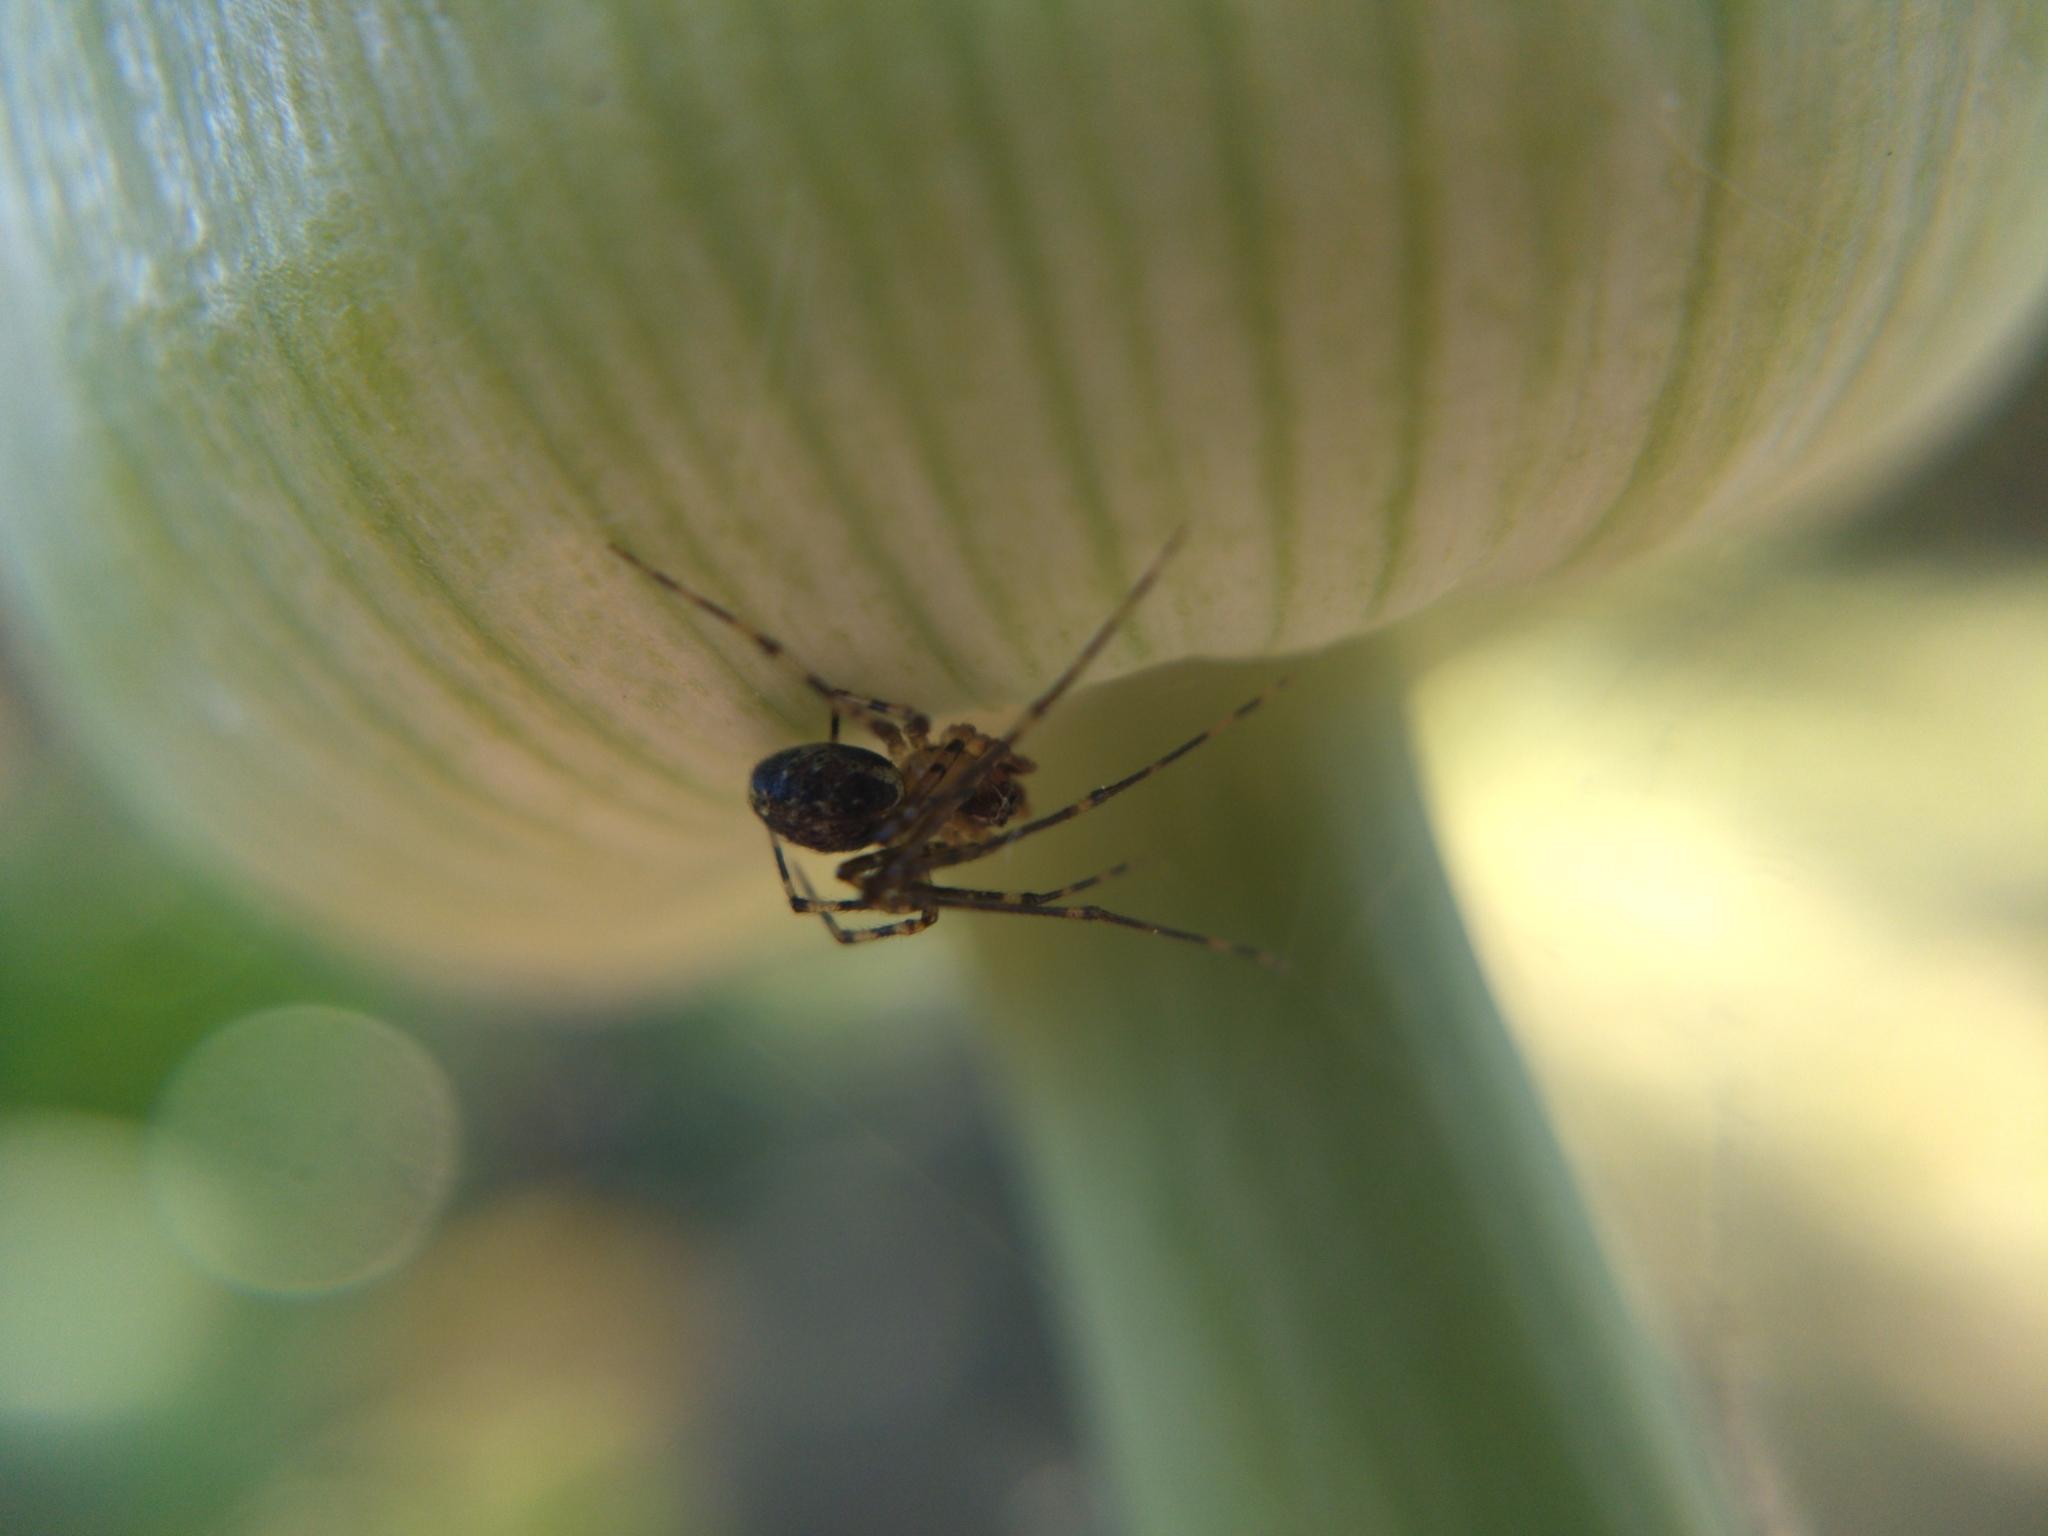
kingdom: Animalia
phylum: Arthropoda
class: Arachnida
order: Araneae
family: Theridiidae
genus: Platnickina
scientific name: Platnickina tincta
